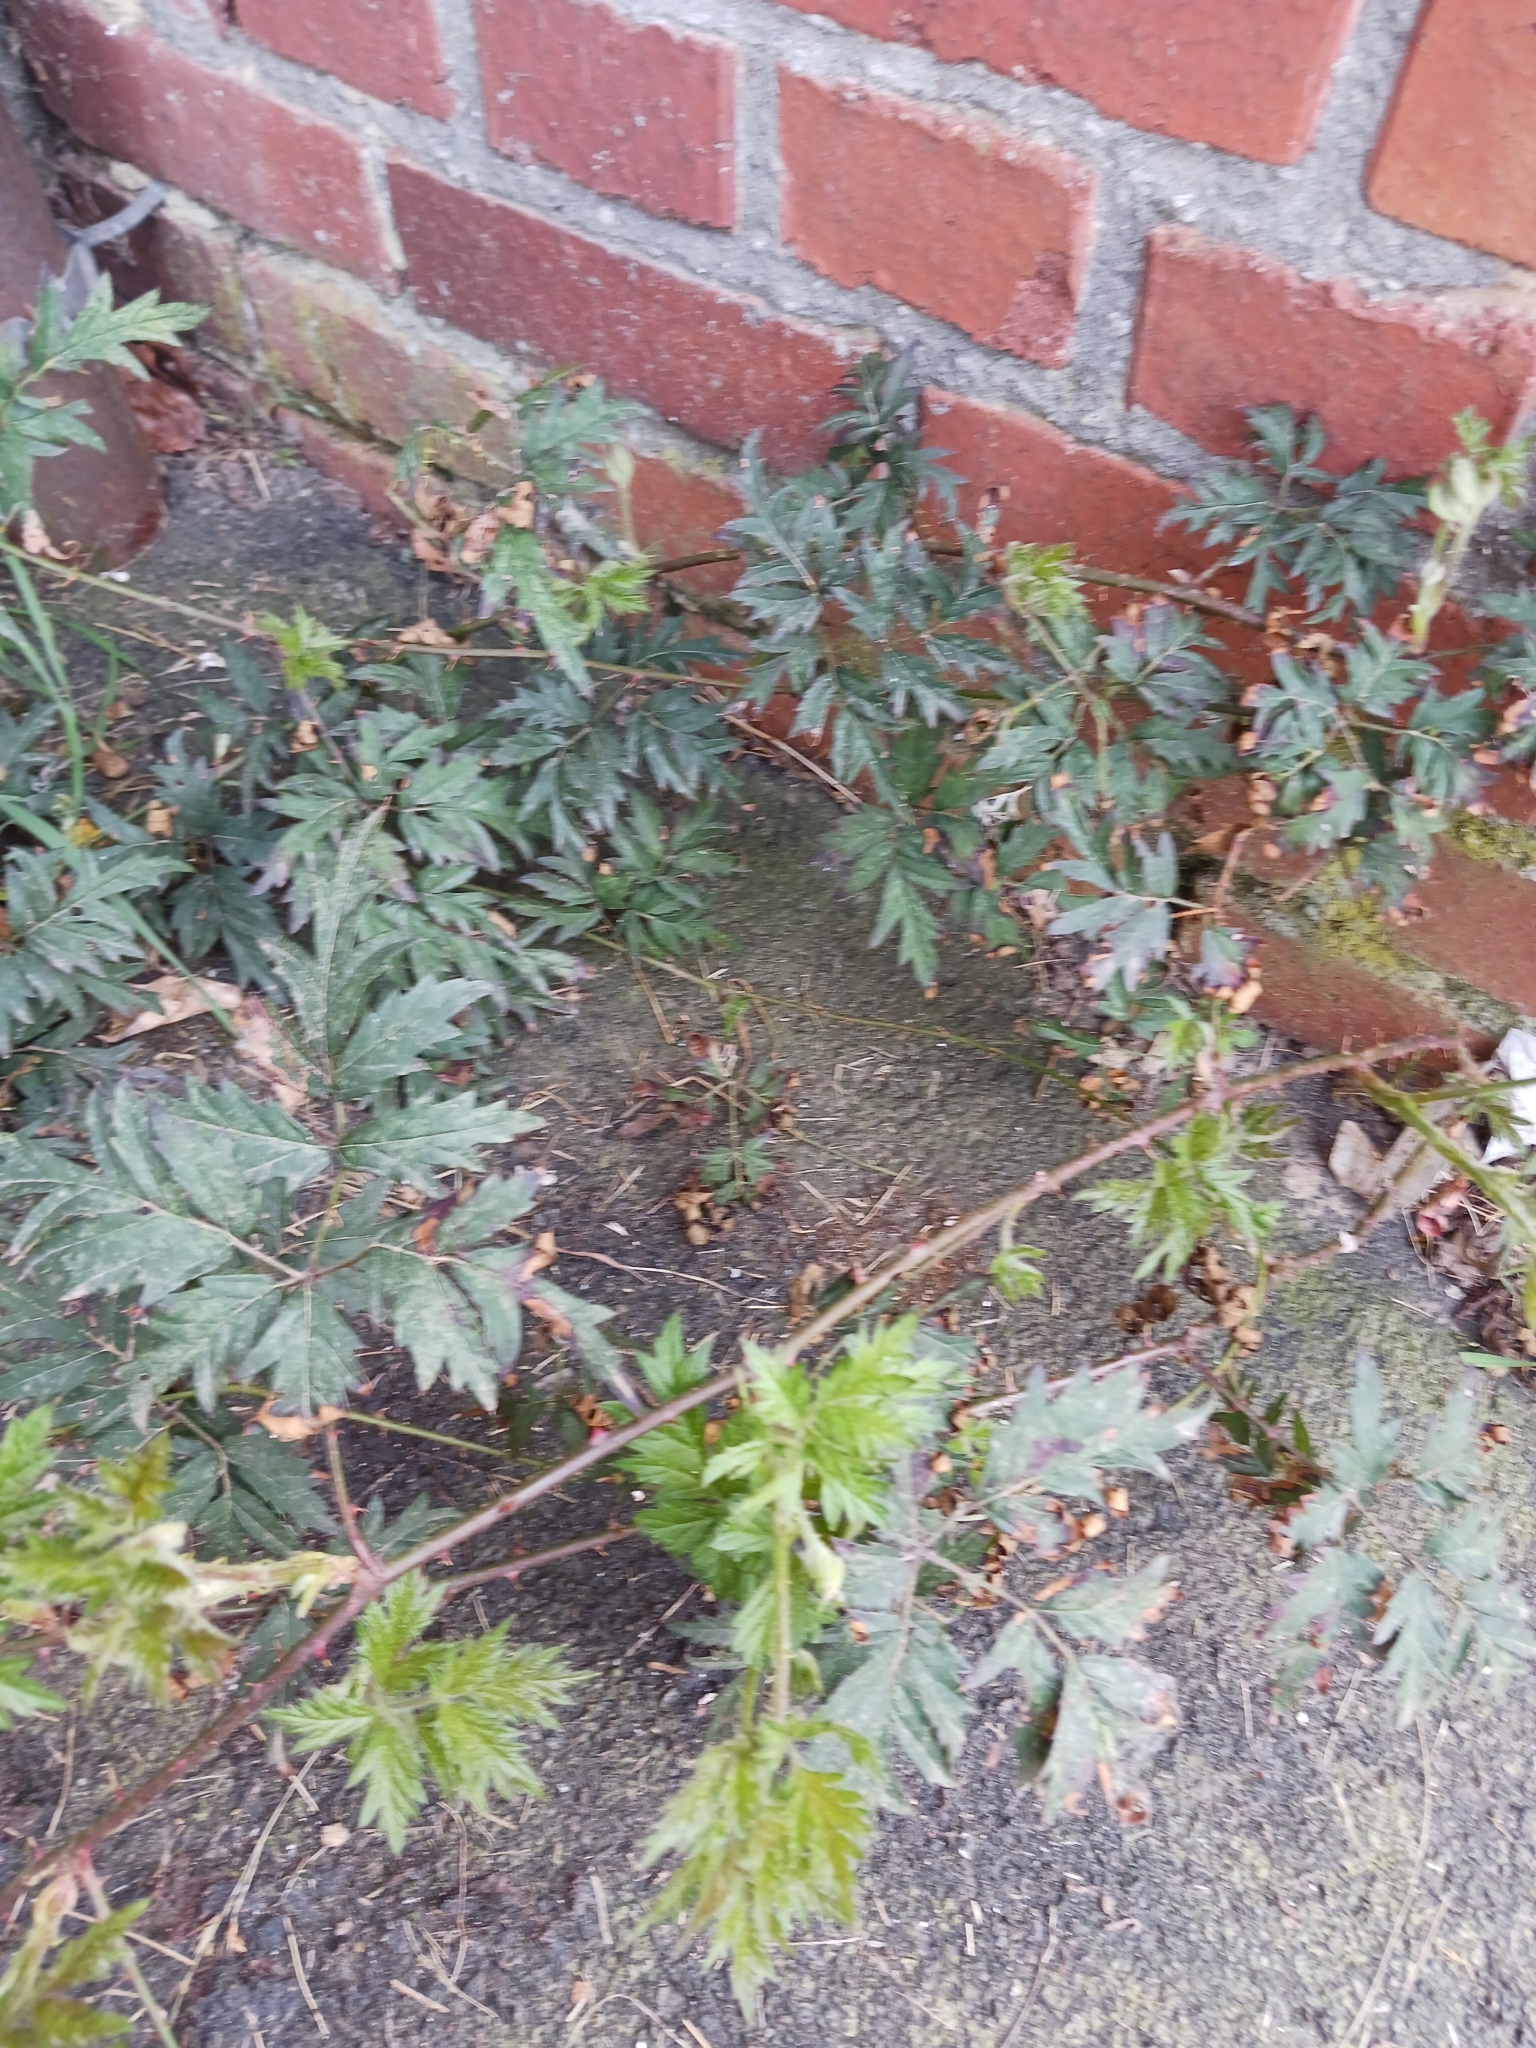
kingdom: Plantae
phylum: Tracheophyta
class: Magnoliopsida
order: Rosales
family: Rosaceae
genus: Rubus
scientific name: Rubus laciniatus
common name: Evergreen blackberry
